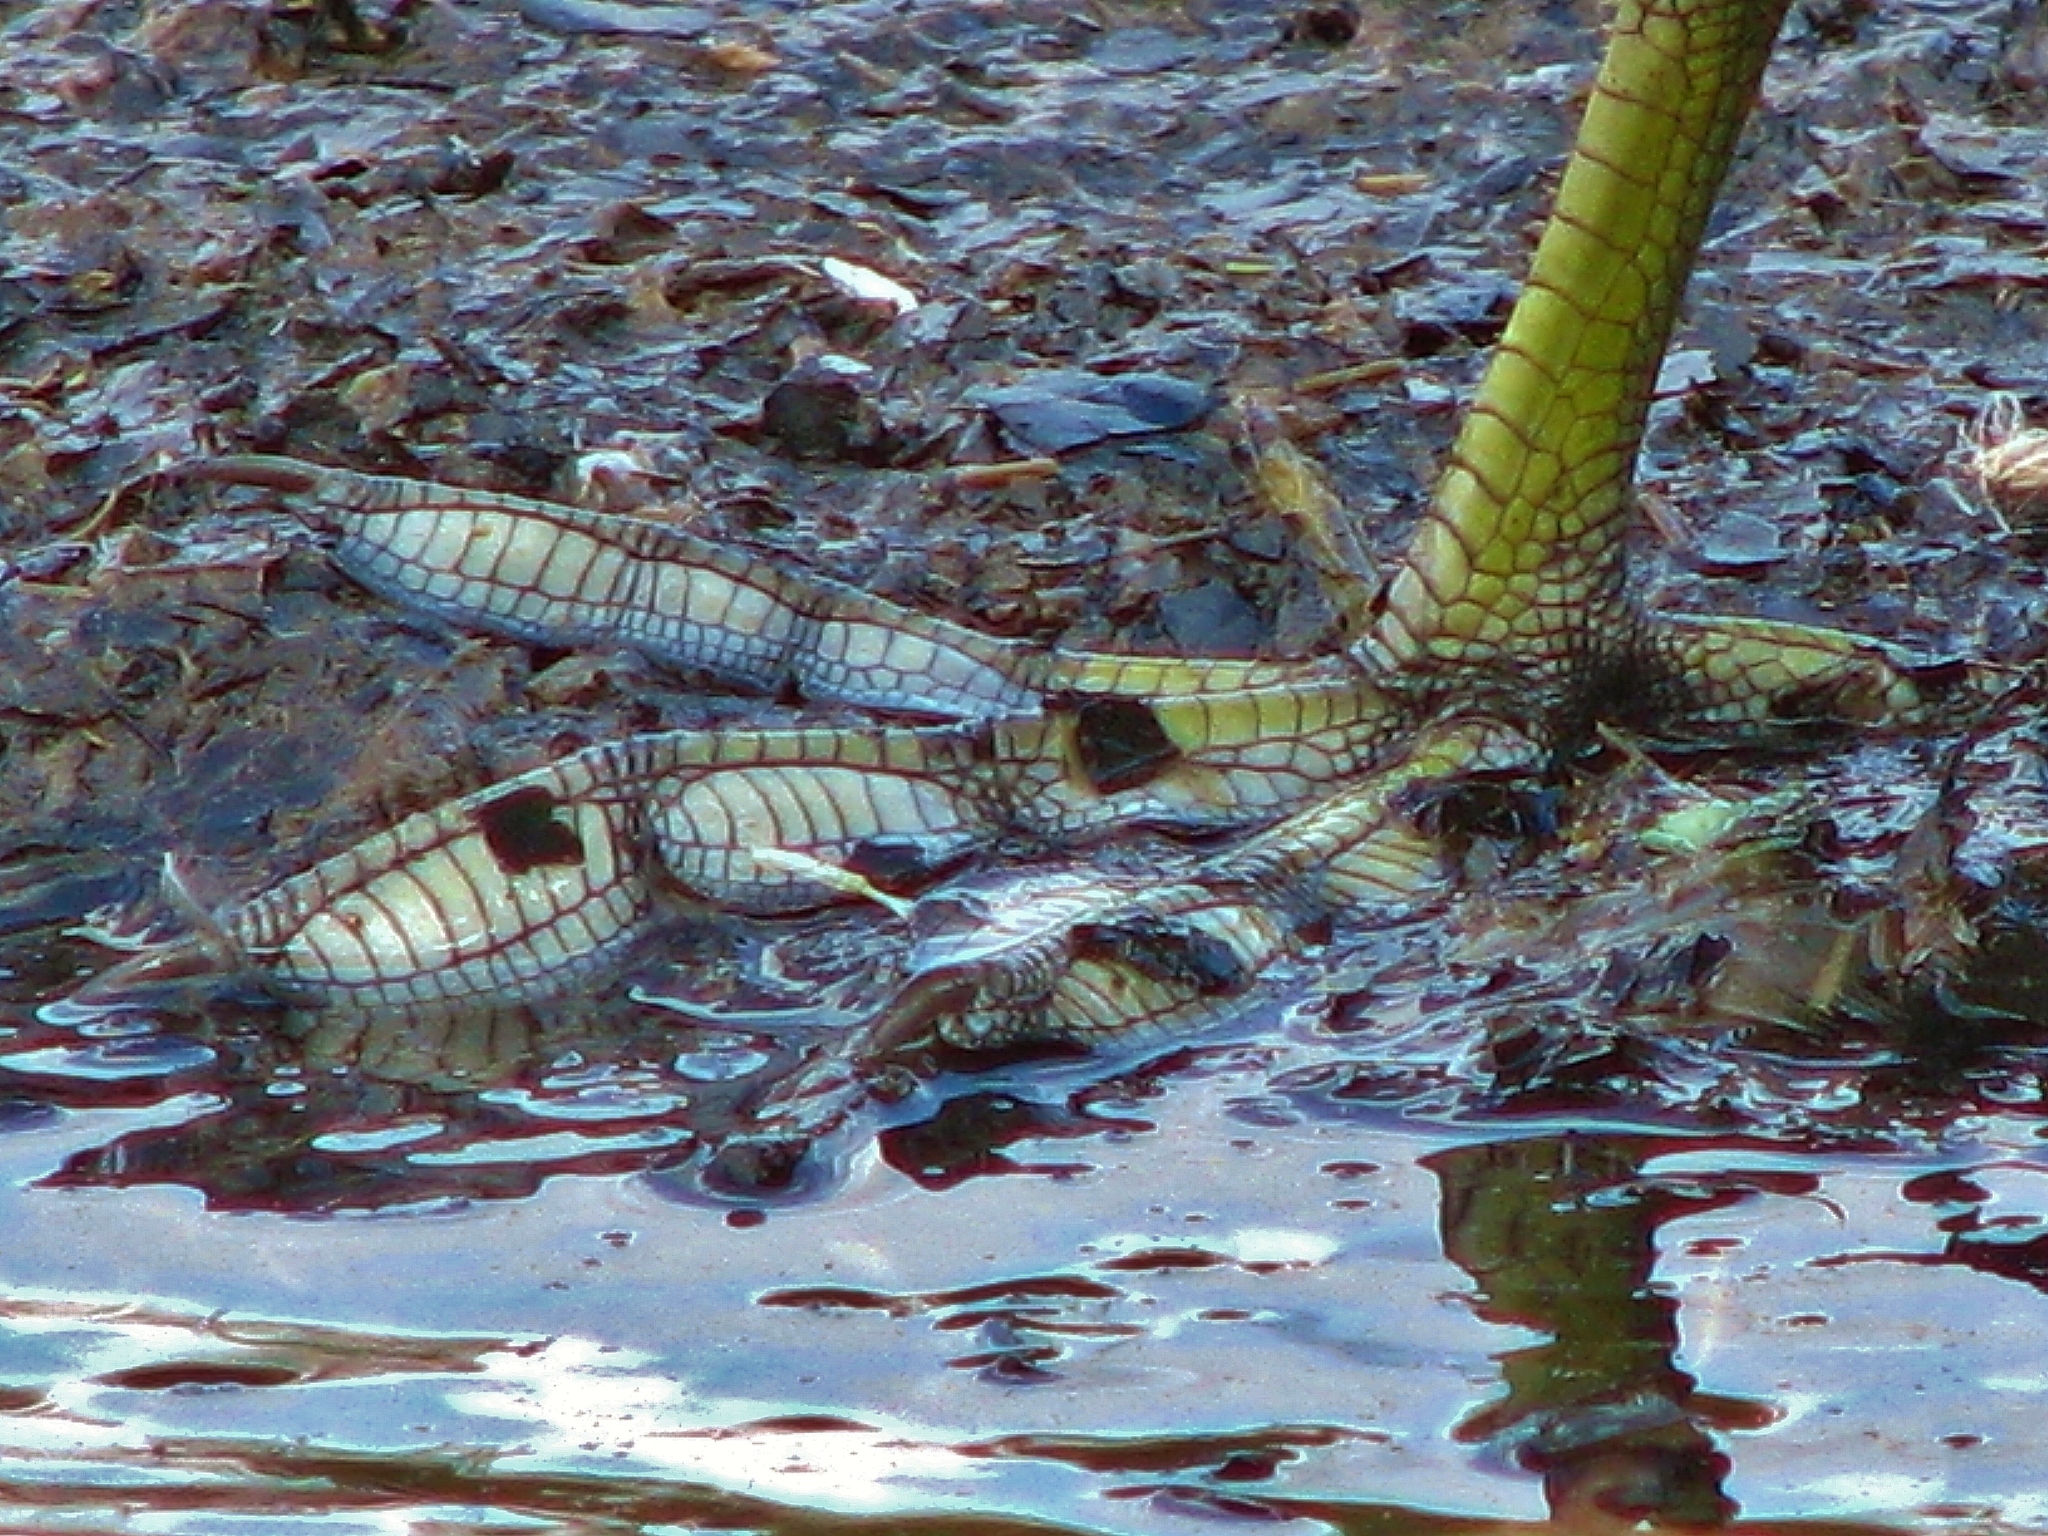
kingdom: Animalia
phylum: Chordata
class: Aves
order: Gruiformes
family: Rallidae
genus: Fulica
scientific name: Fulica americana
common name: American coot
